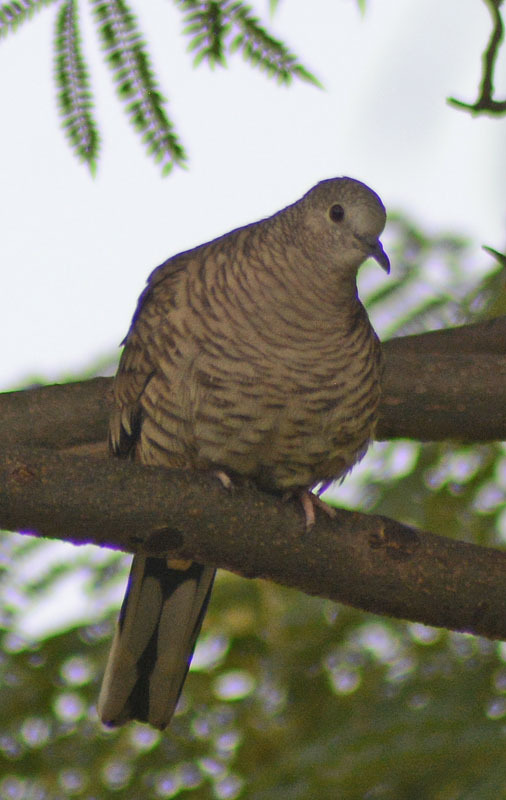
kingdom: Animalia
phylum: Chordata
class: Aves
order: Columbiformes
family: Columbidae
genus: Columbina
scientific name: Columbina inca
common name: Inca dove
